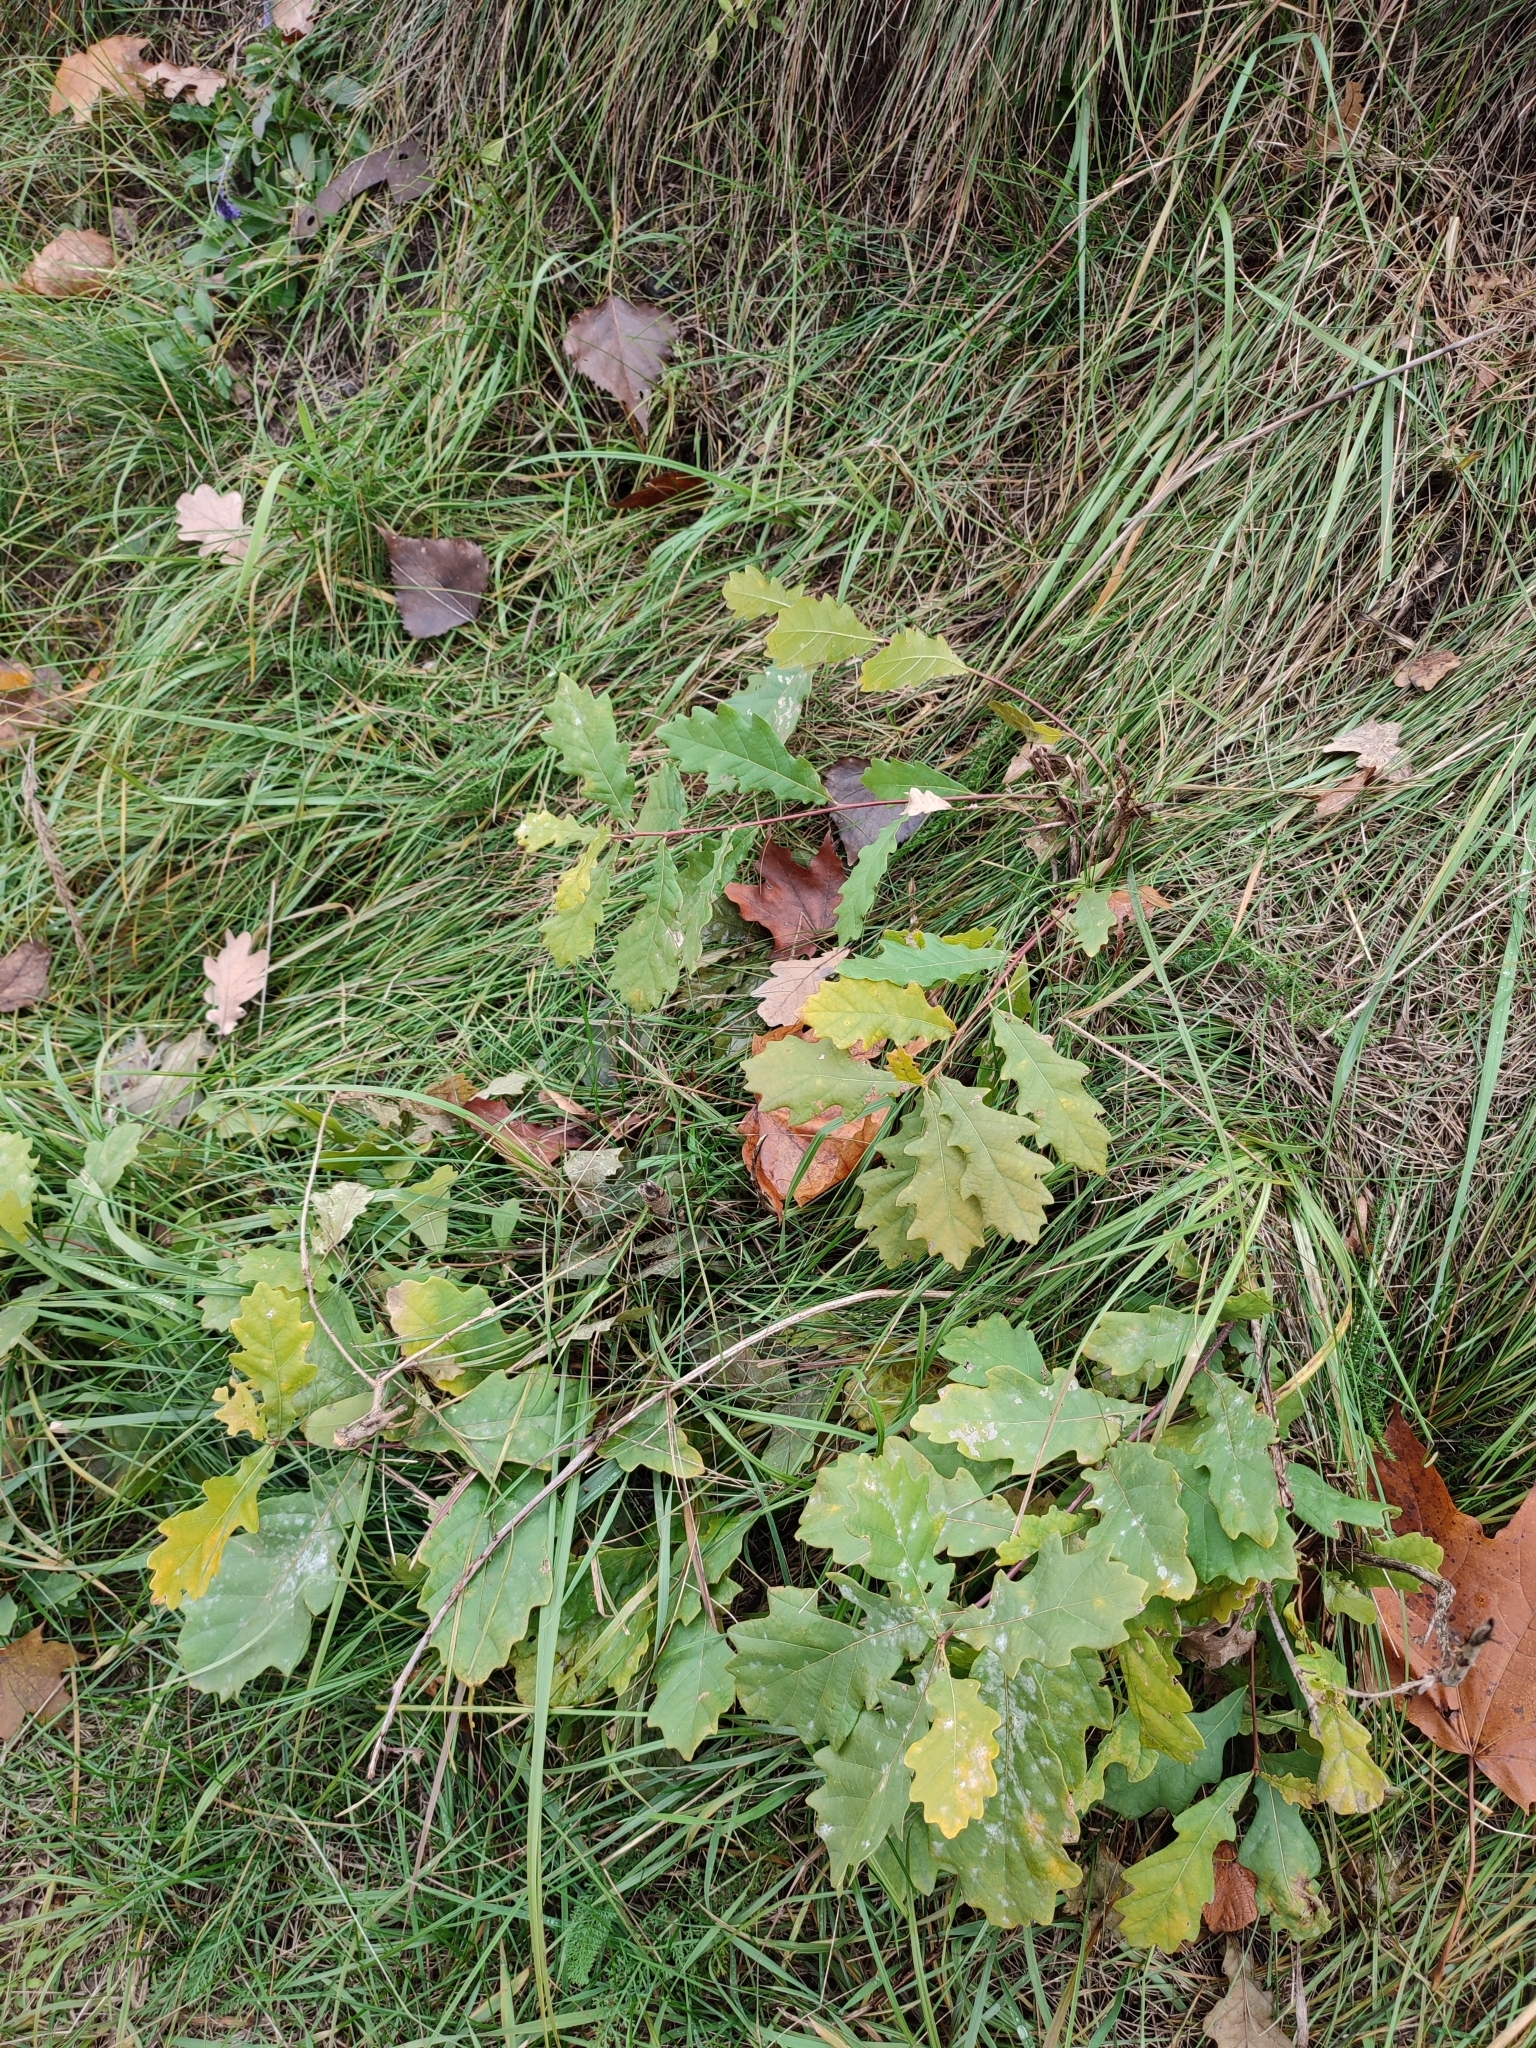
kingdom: Plantae
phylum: Tracheophyta
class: Magnoliopsida
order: Fagales
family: Fagaceae
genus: Quercus
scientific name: Quercus robur
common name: Pedunculate oak
